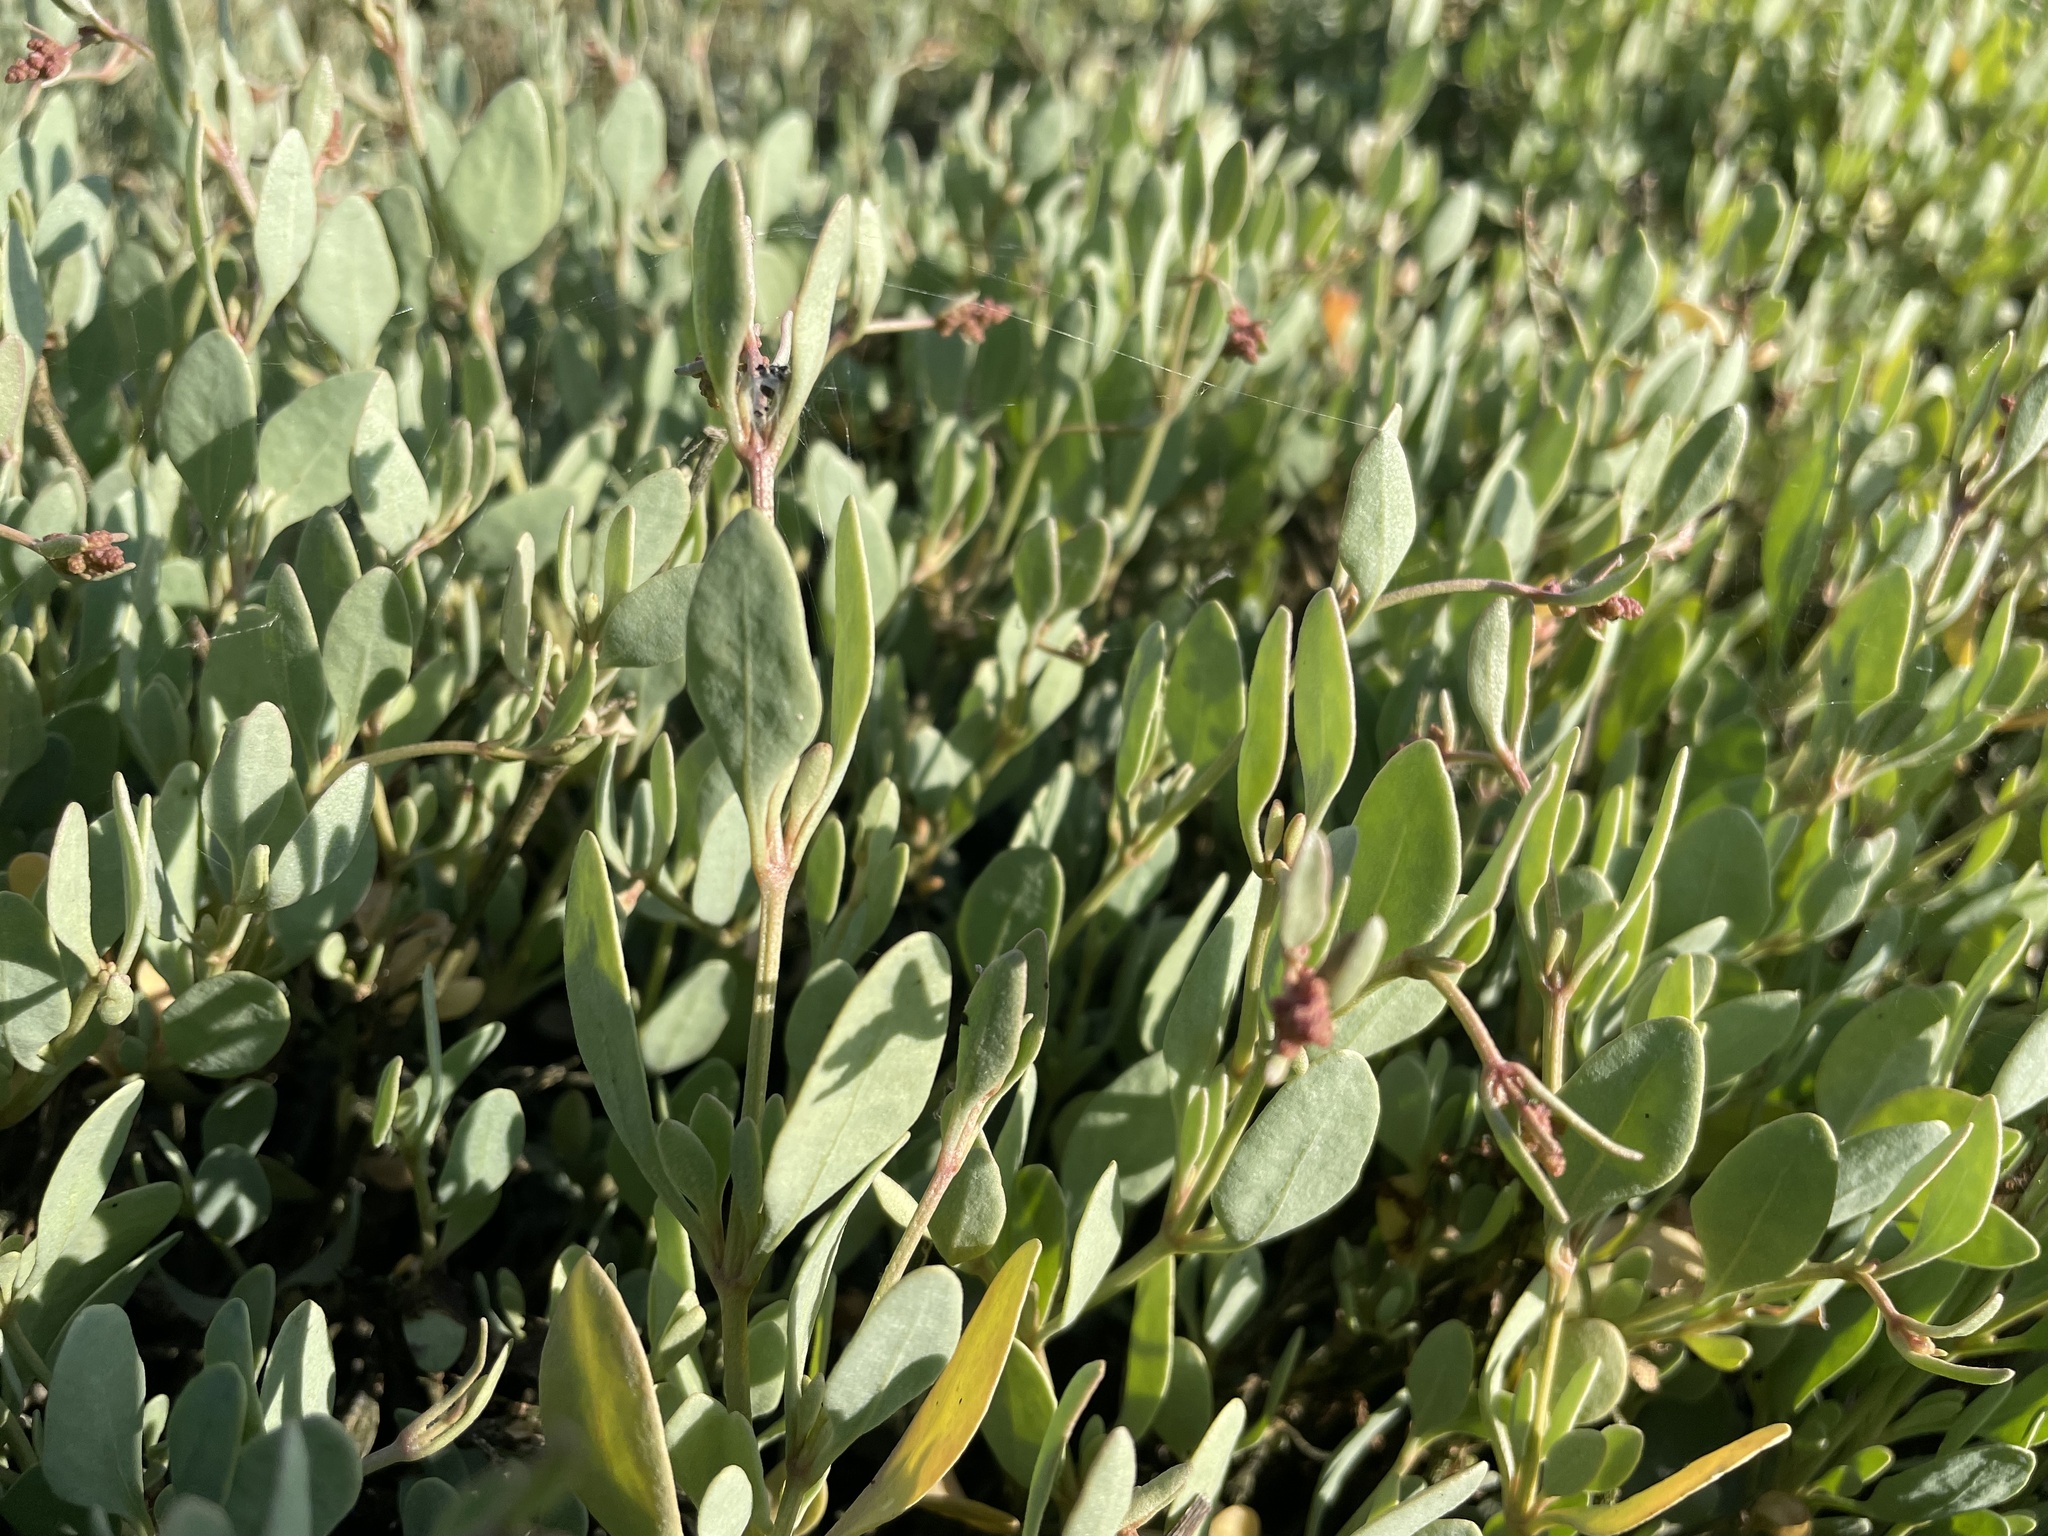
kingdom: Plantae
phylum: Tracheophyta
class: Magnoliopsida
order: Caryophyllales
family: Amaranthaceae
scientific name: Amaranthaceae
